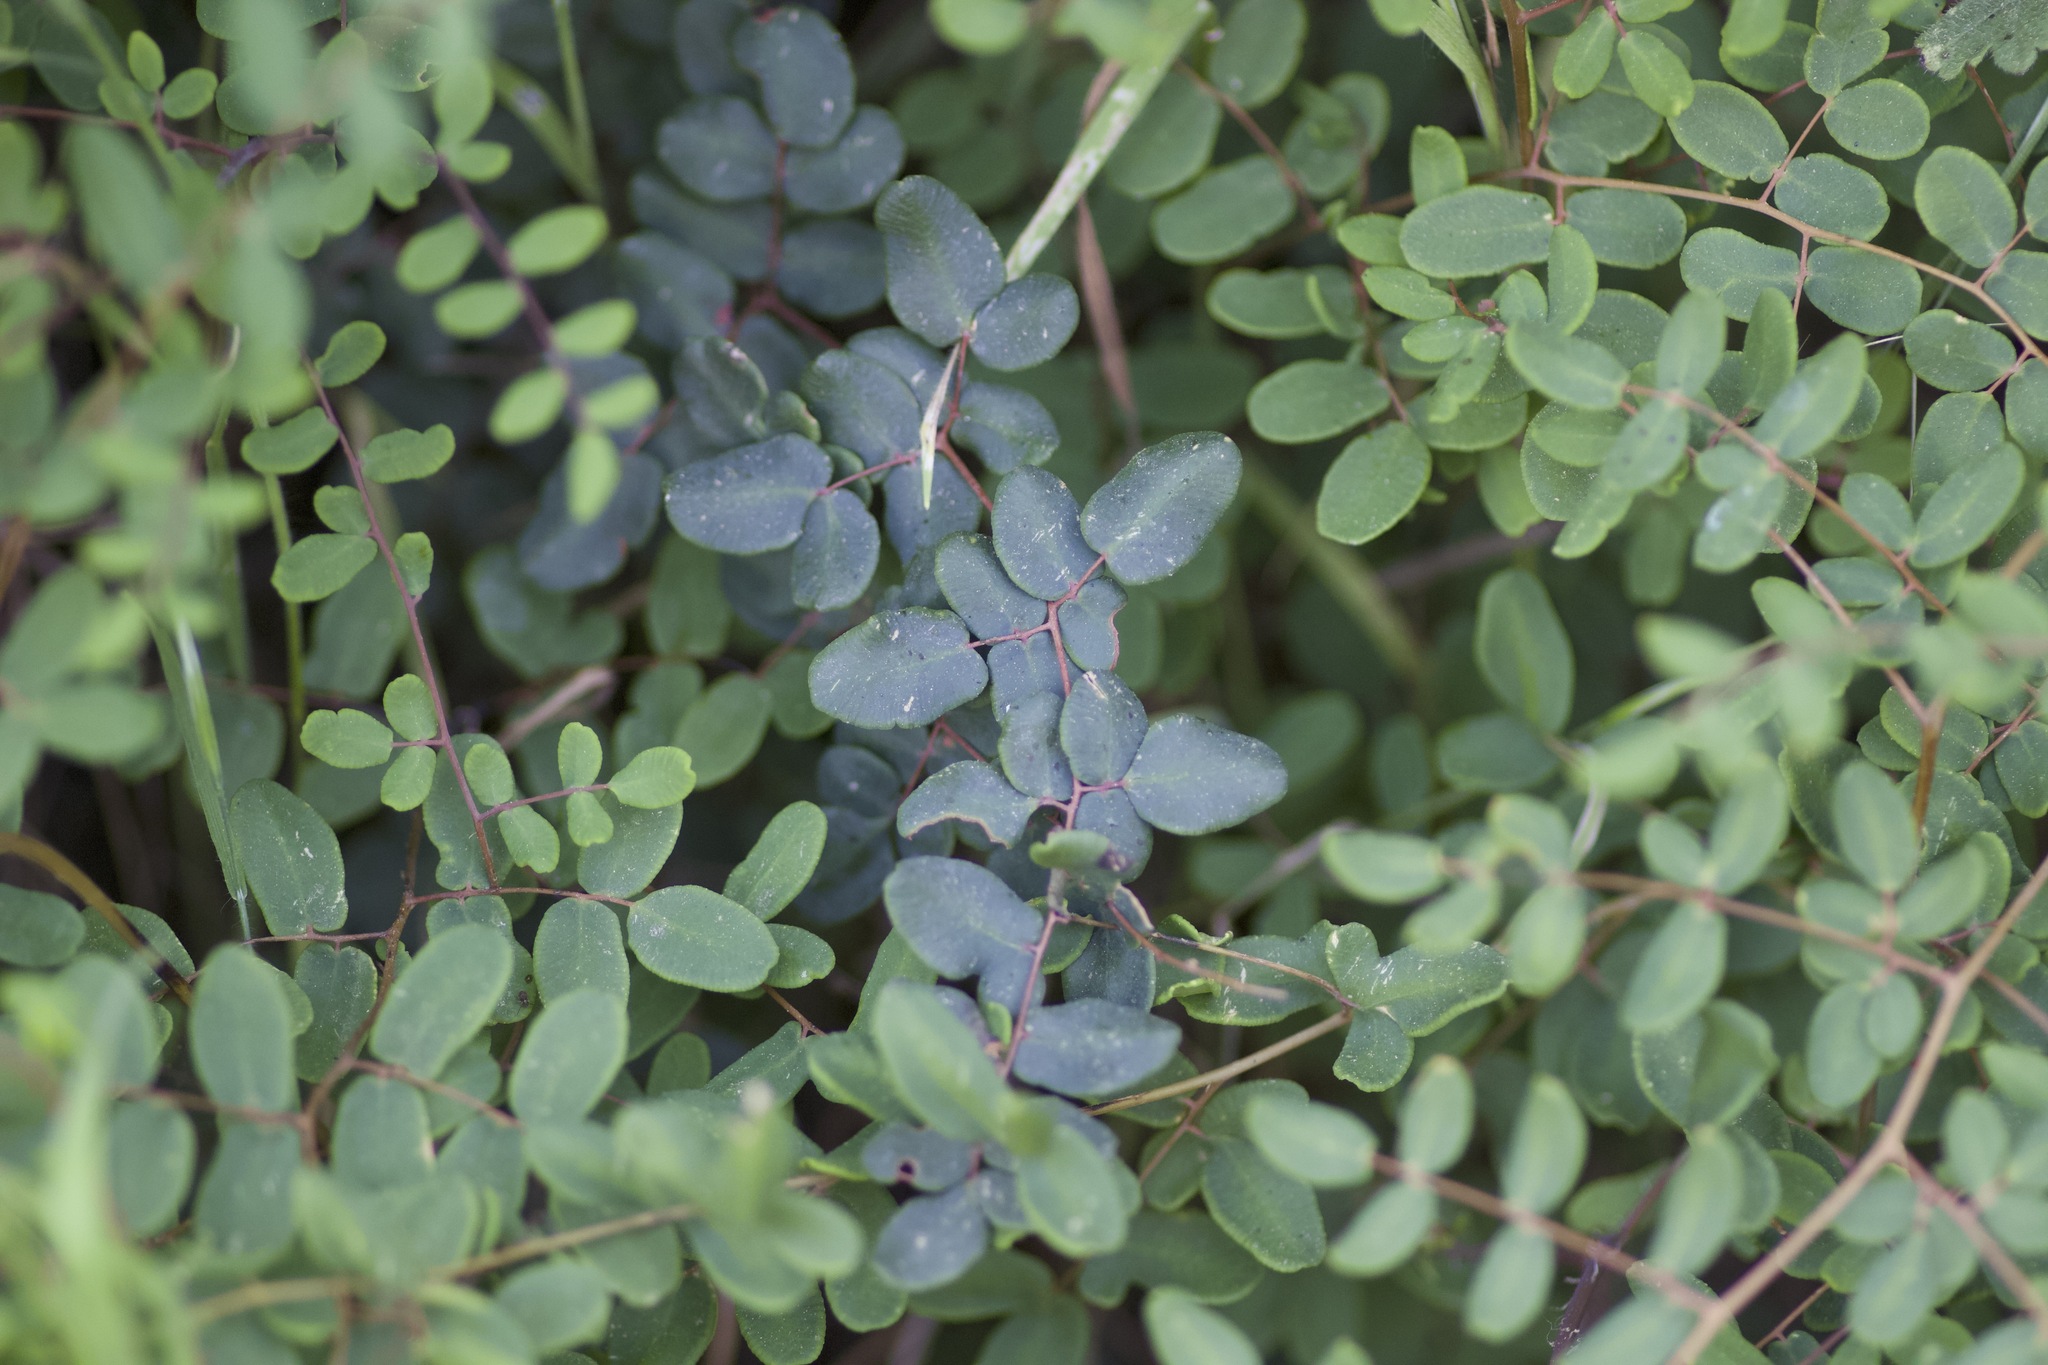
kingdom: Plantae
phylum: Tracheophyta
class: Polypodiopsida
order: Polypodiales
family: Pteridaceae
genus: Pellaea
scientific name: Pellaea andromedifolia
